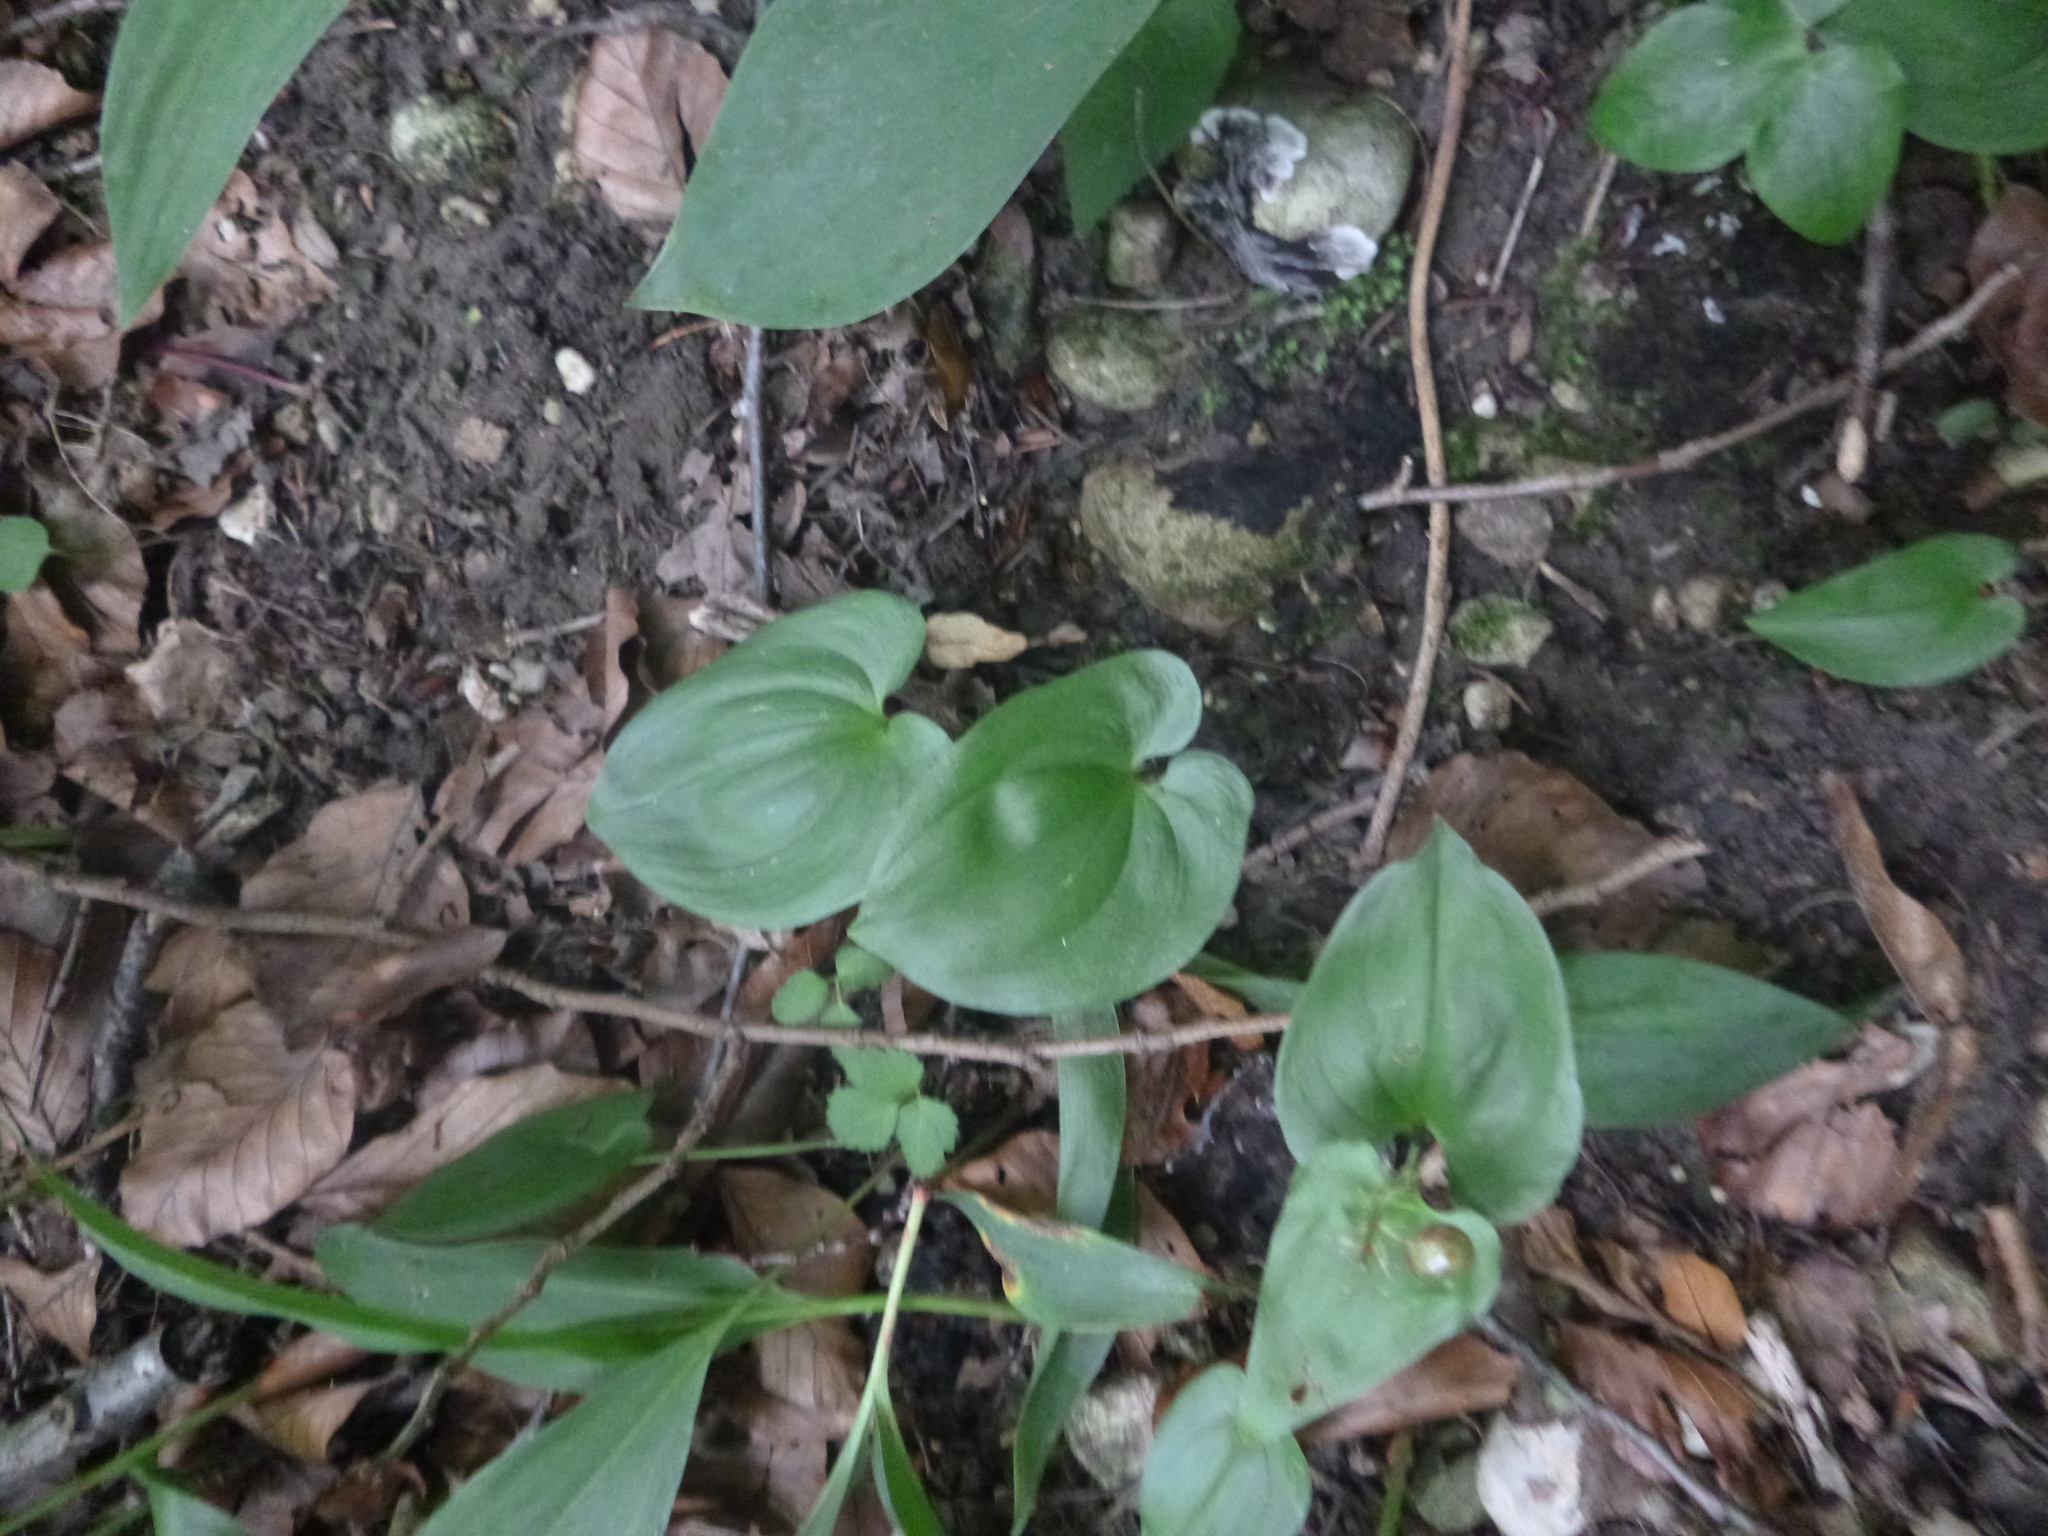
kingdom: Plantae
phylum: Tracheophyta
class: Liliopsida
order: Asparagales
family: Asparagaceae
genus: Maianthemum
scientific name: Maianthemum bifolium
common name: May lily
